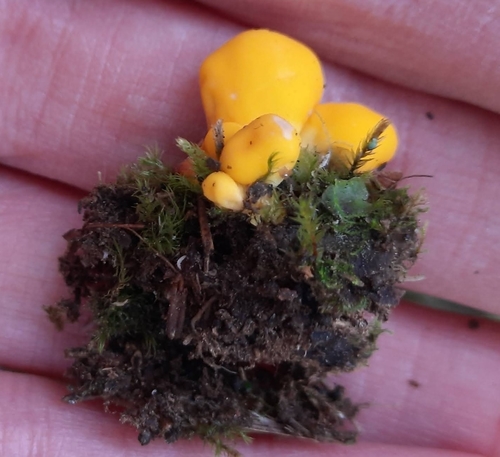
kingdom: Fungi
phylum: Ascomycota
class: Neolectomycetes
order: Neolectales
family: Neolectaceae
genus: Neolecta
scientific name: Neolecta
